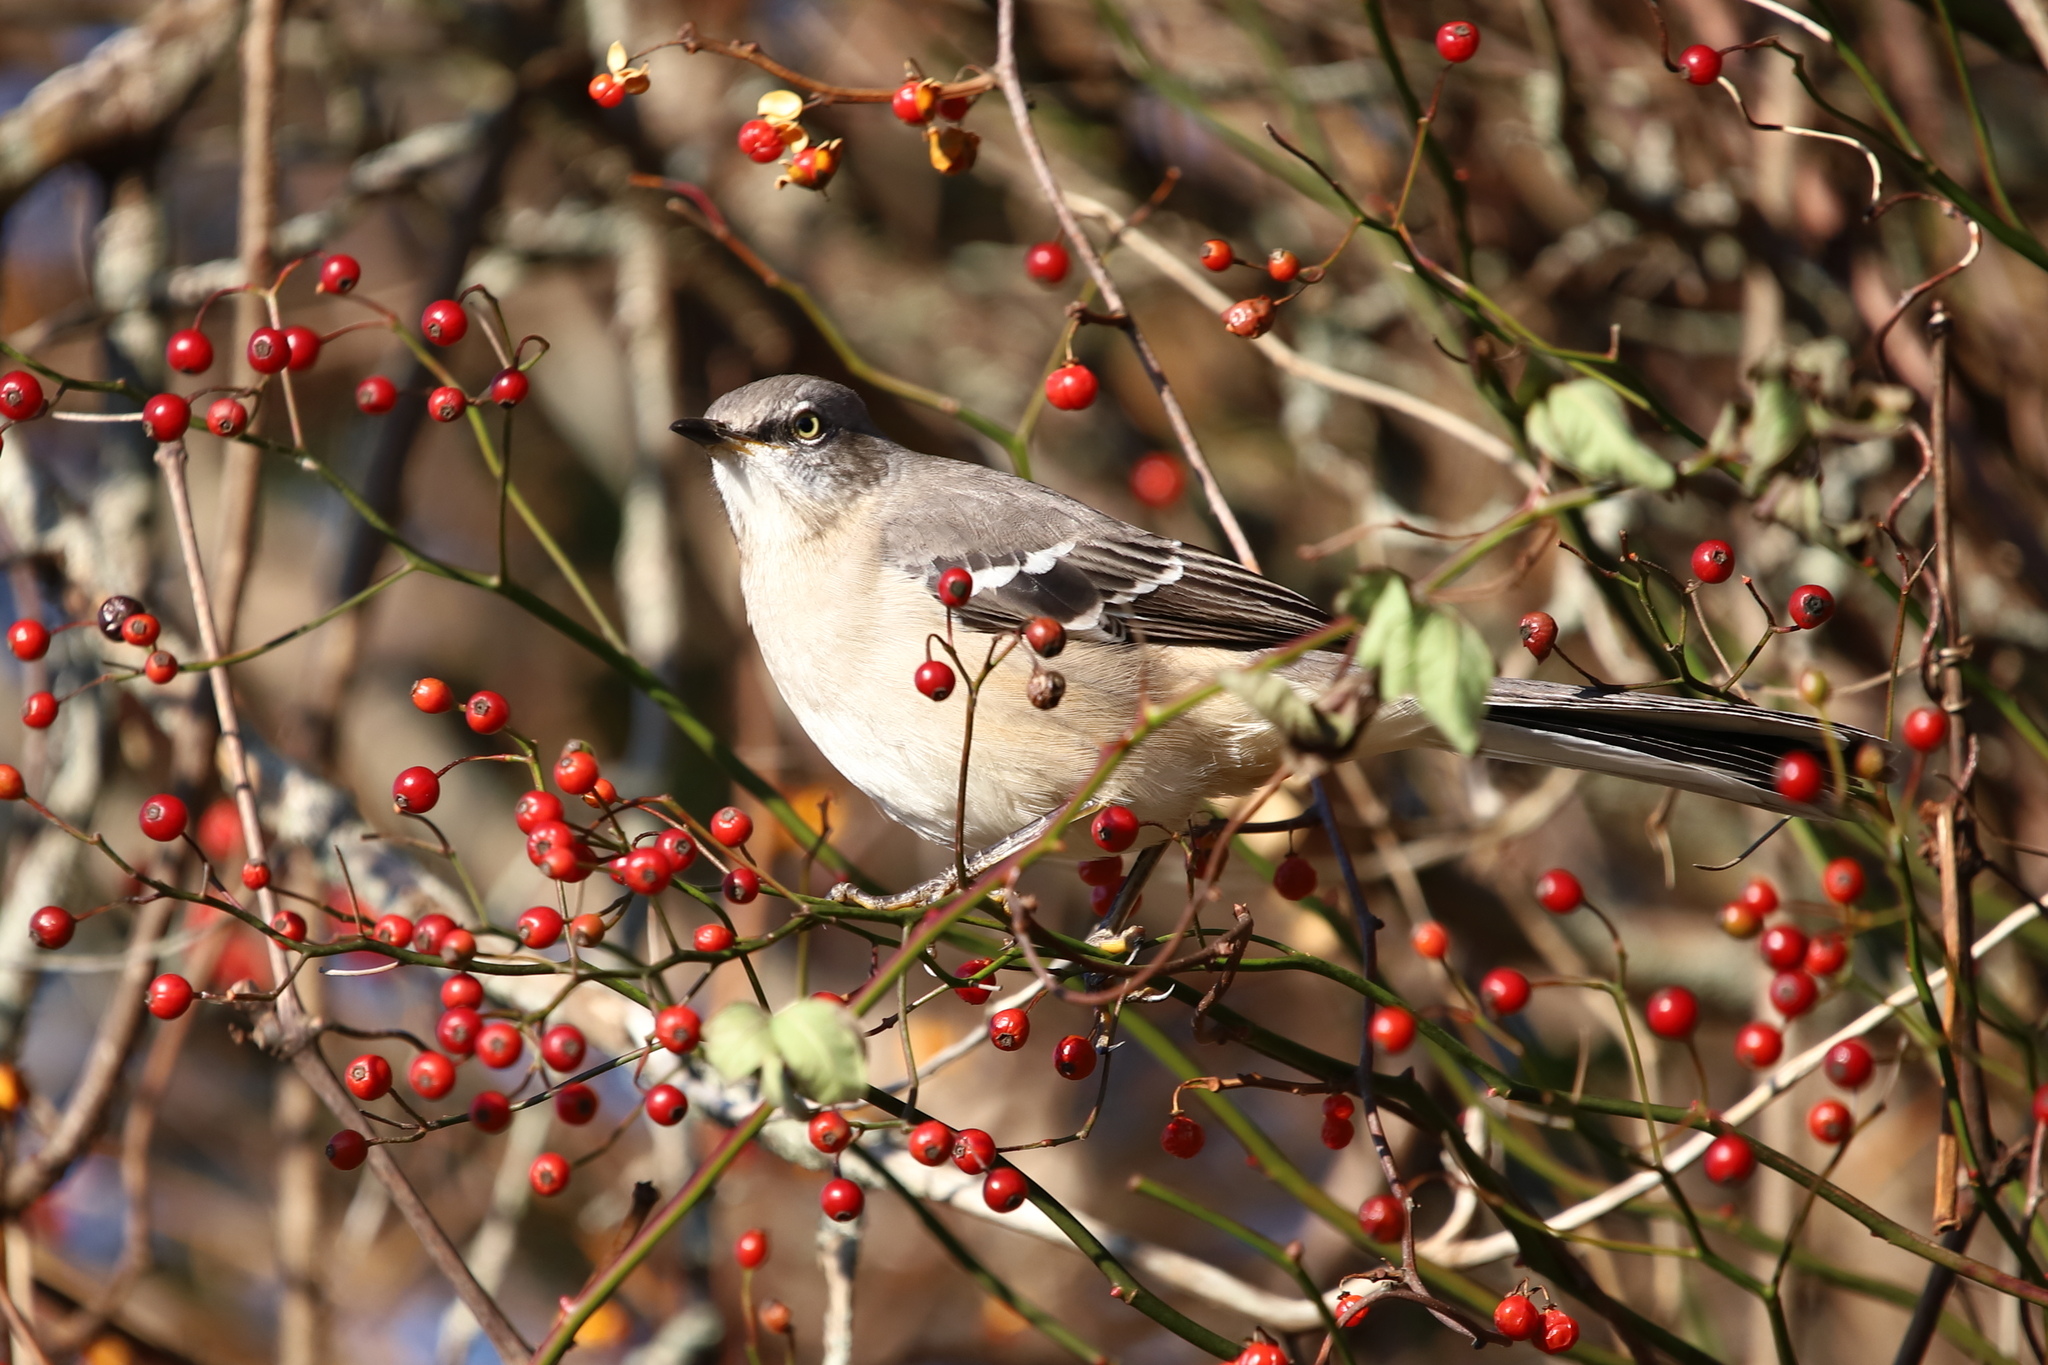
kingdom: Animalia
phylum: Chordata
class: Aves
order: Passeriformes
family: Mimidae
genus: Mimus
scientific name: Mimus polyglottos
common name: Northern mockingbird
